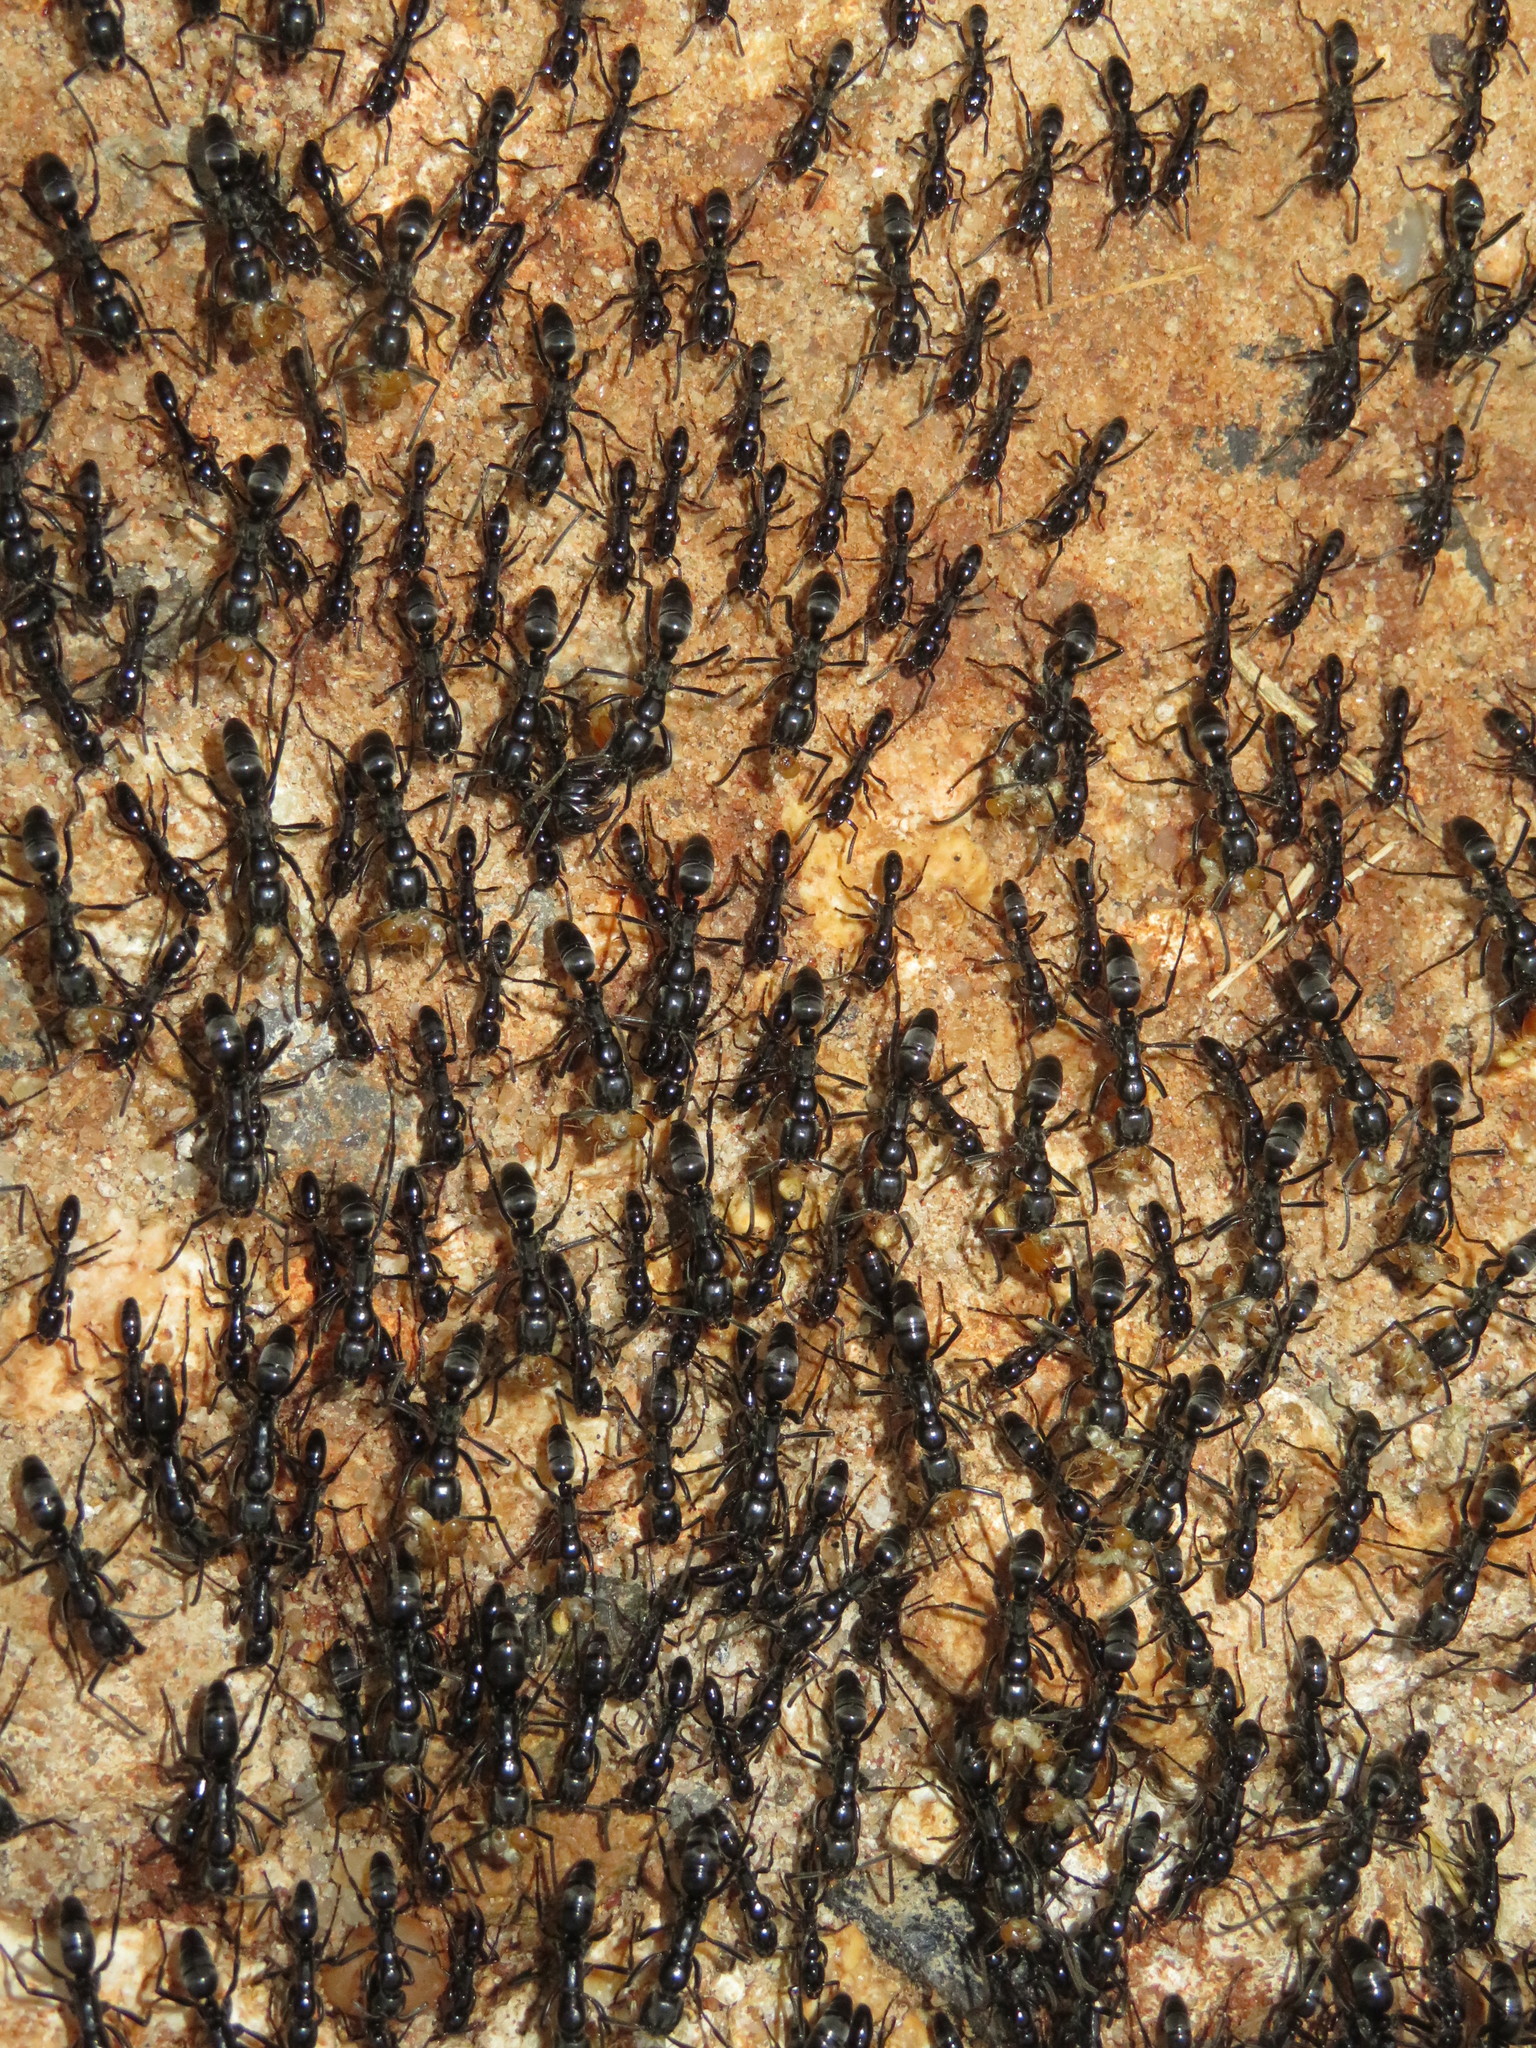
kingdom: Animalia
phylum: Arthropoda
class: Insecta
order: Hymenoptera
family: Formicidae
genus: Megaponera
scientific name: Megaponera analis
